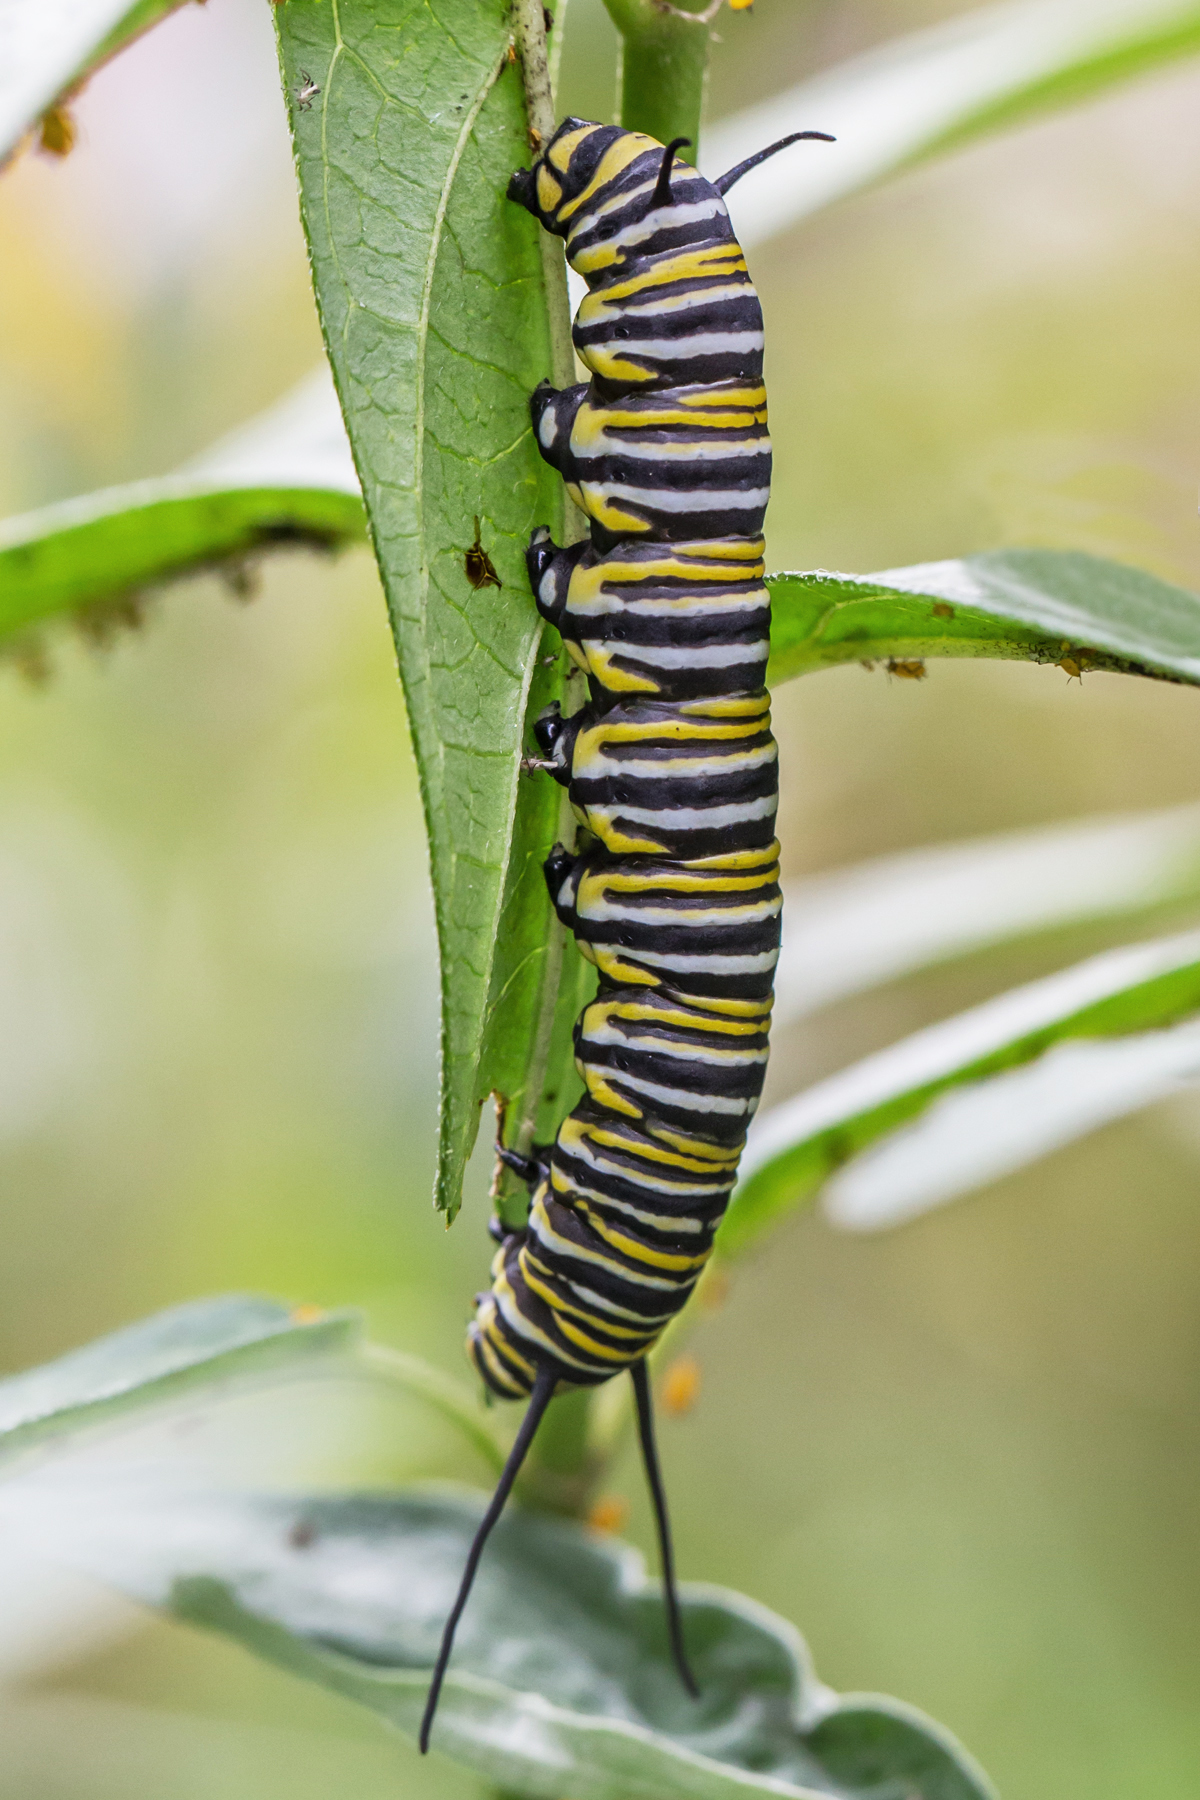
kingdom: Animalia
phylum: Arthropoda
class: Insecta
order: Lepidoptera
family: Nymphalidae
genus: Danaus
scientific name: Danaus plexippus
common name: Monarch
